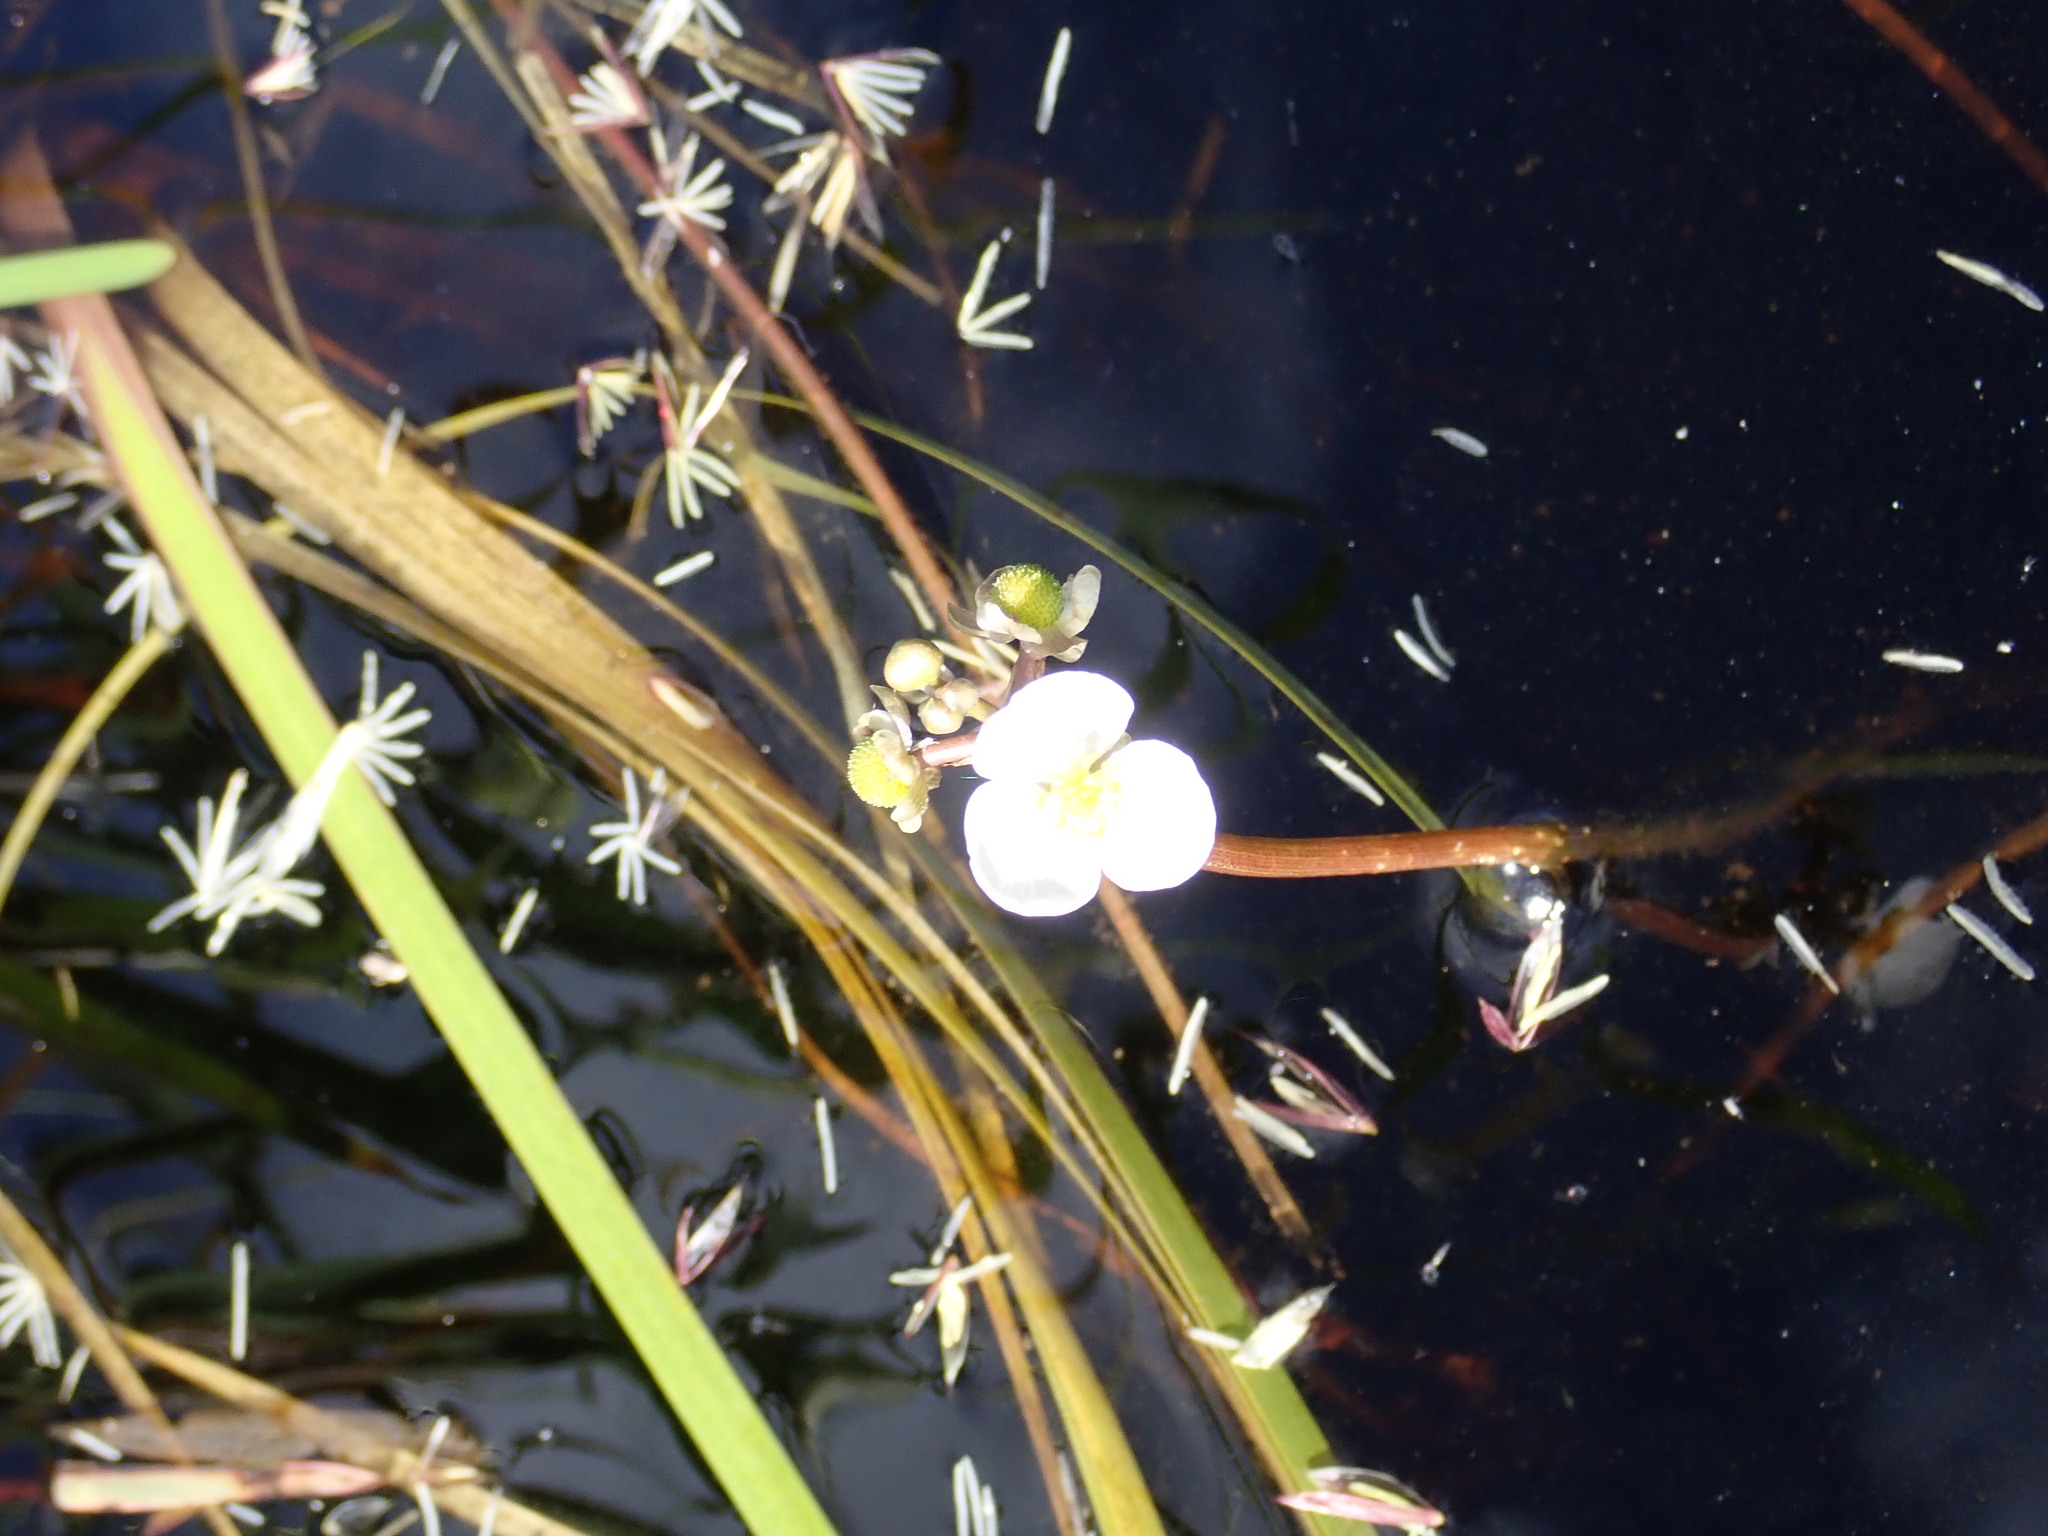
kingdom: Plantae
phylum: Tracheophyta
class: Liliopsida
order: Alismatales
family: Alismataceae
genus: Sagittaria
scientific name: Sagittaria cuneata
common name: Northern arrowhead
